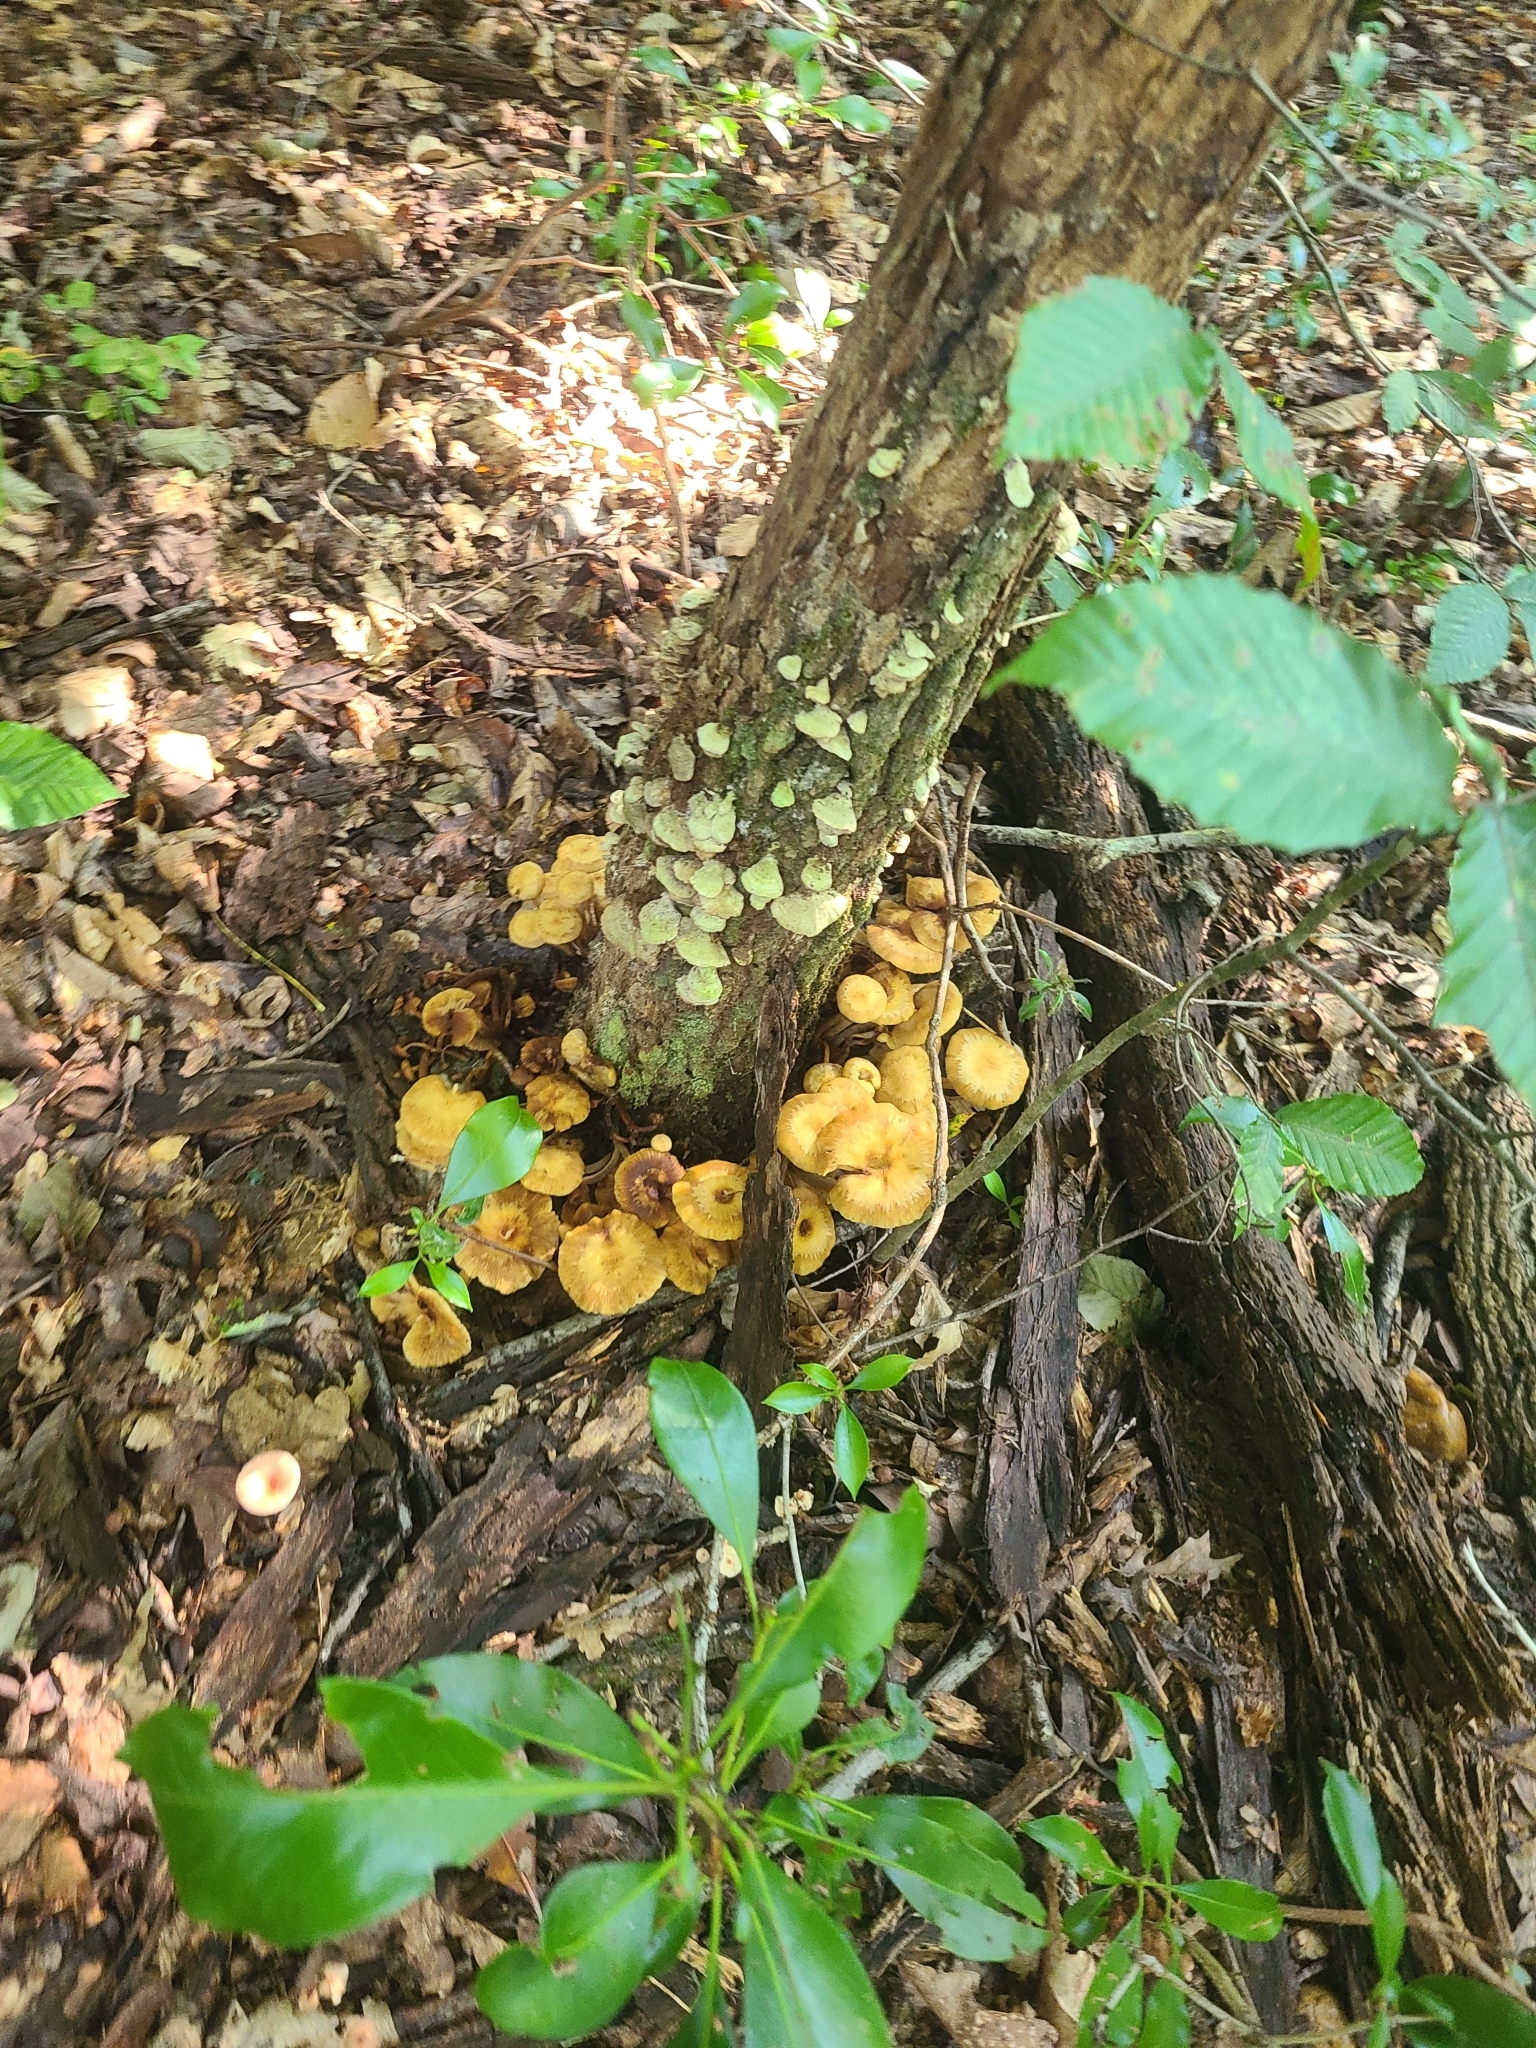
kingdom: Fungi
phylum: Basidiomycota
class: Agaricomycetes
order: Agaricales
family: Physalacriaceae
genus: Desarmillaria
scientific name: Desarmillaria caespitosa
